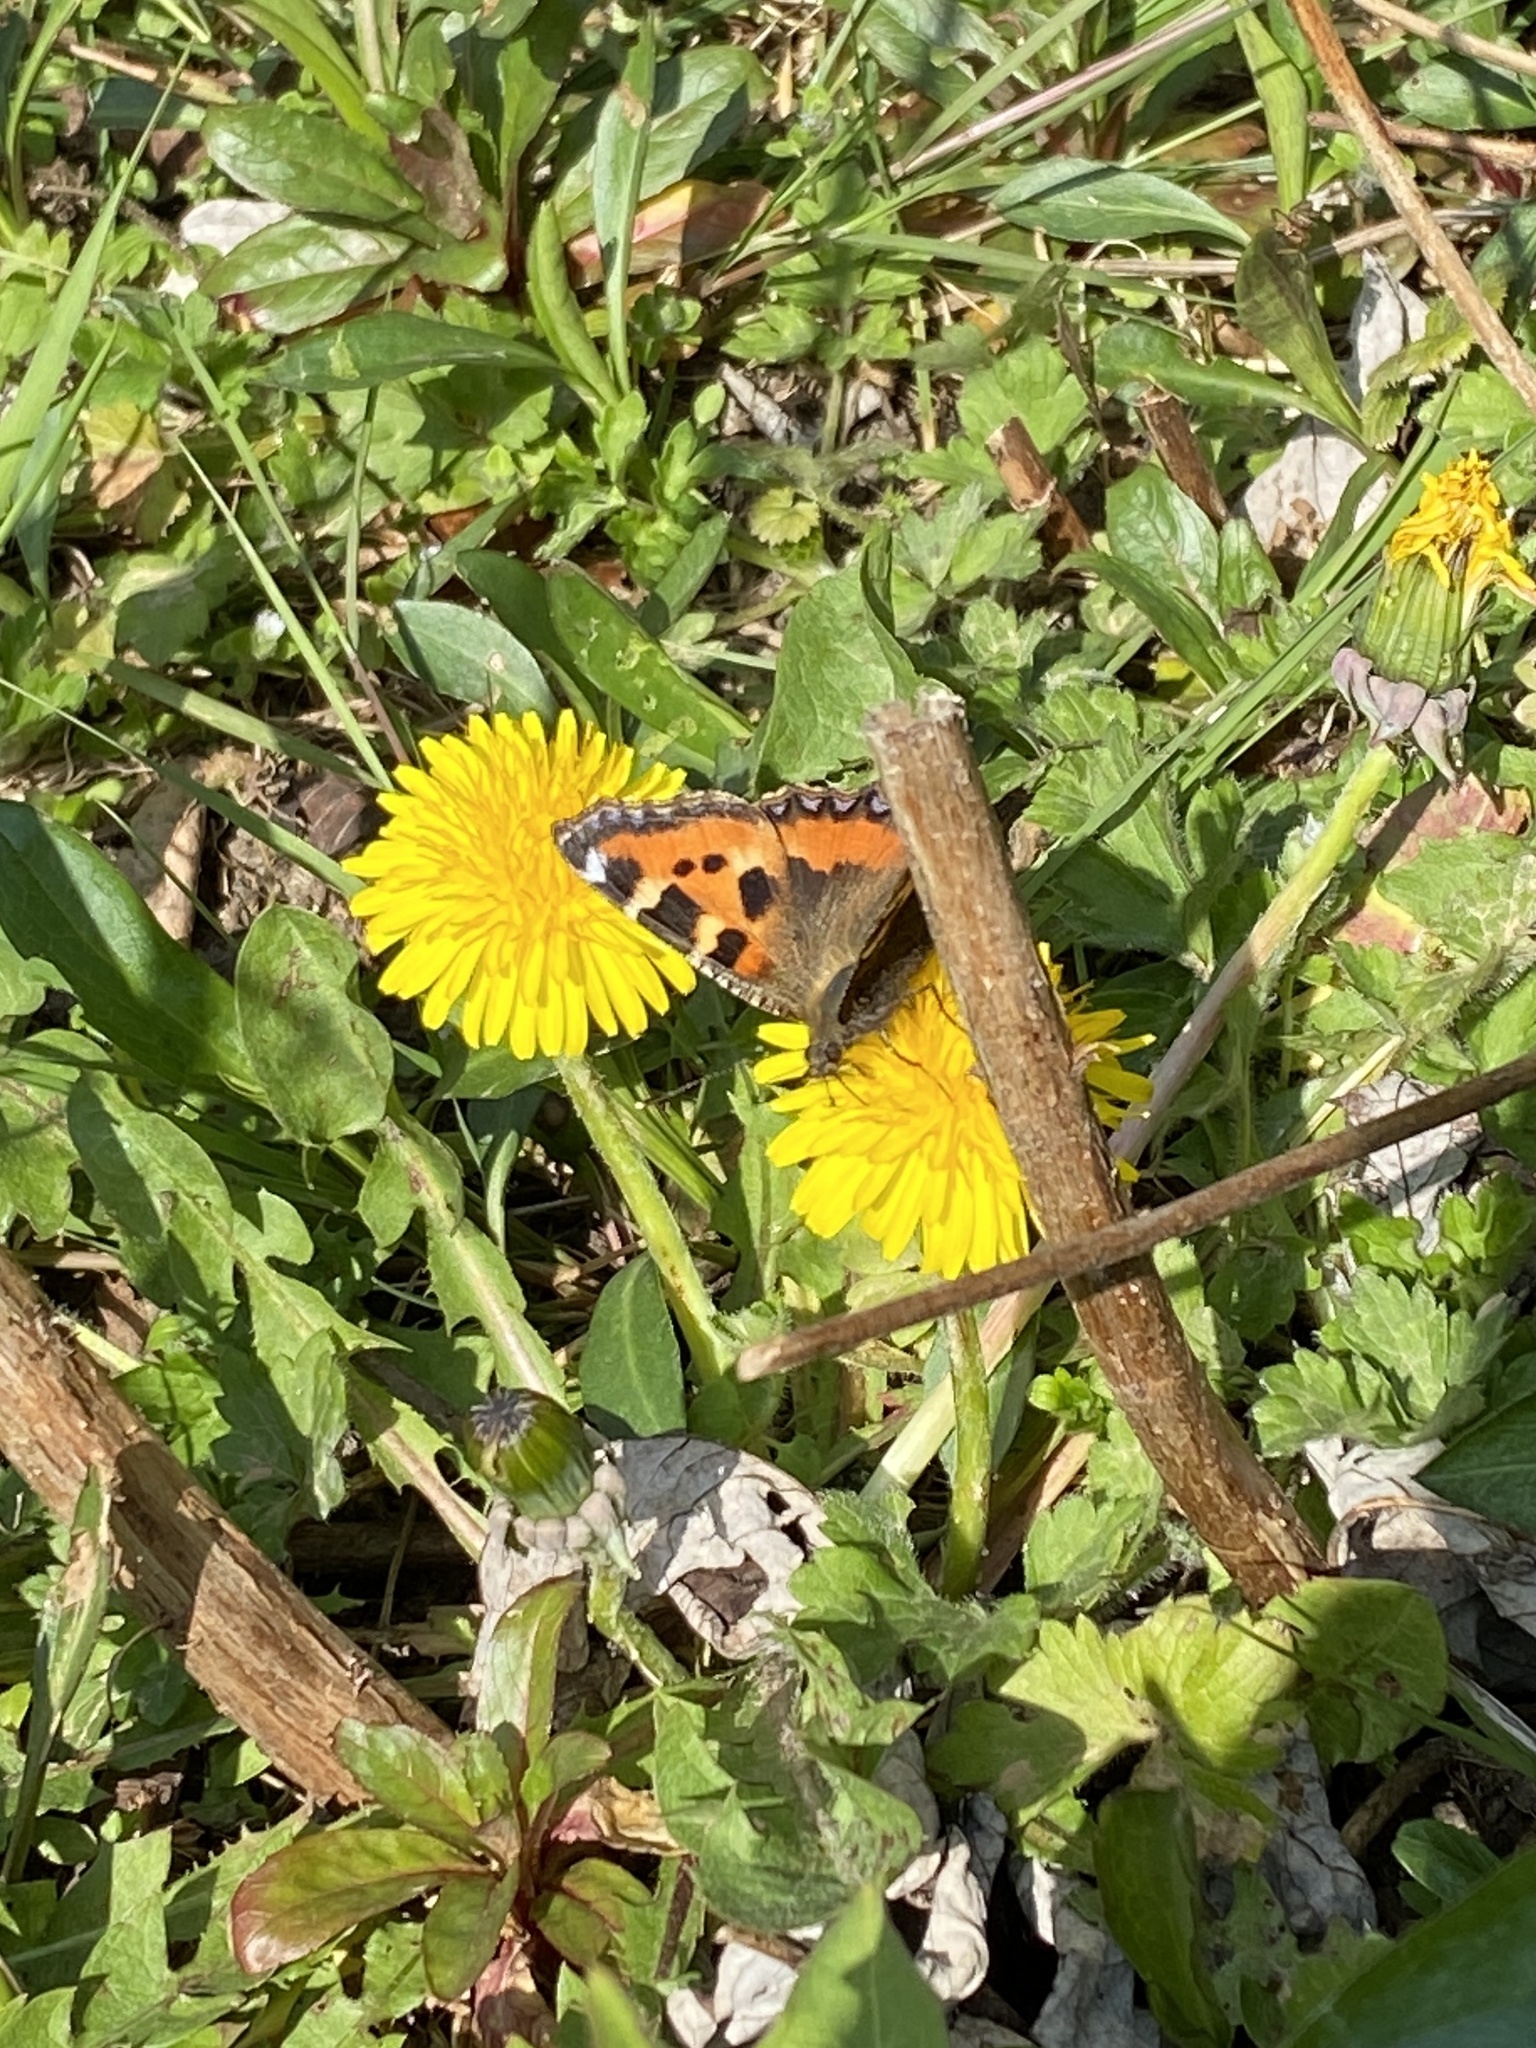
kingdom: Animalia
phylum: Arthropoda
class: Insecta
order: Lepidoptera
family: Nymphalidae
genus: Aglais
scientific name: Aglais urticae
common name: Small tortoiseshell
